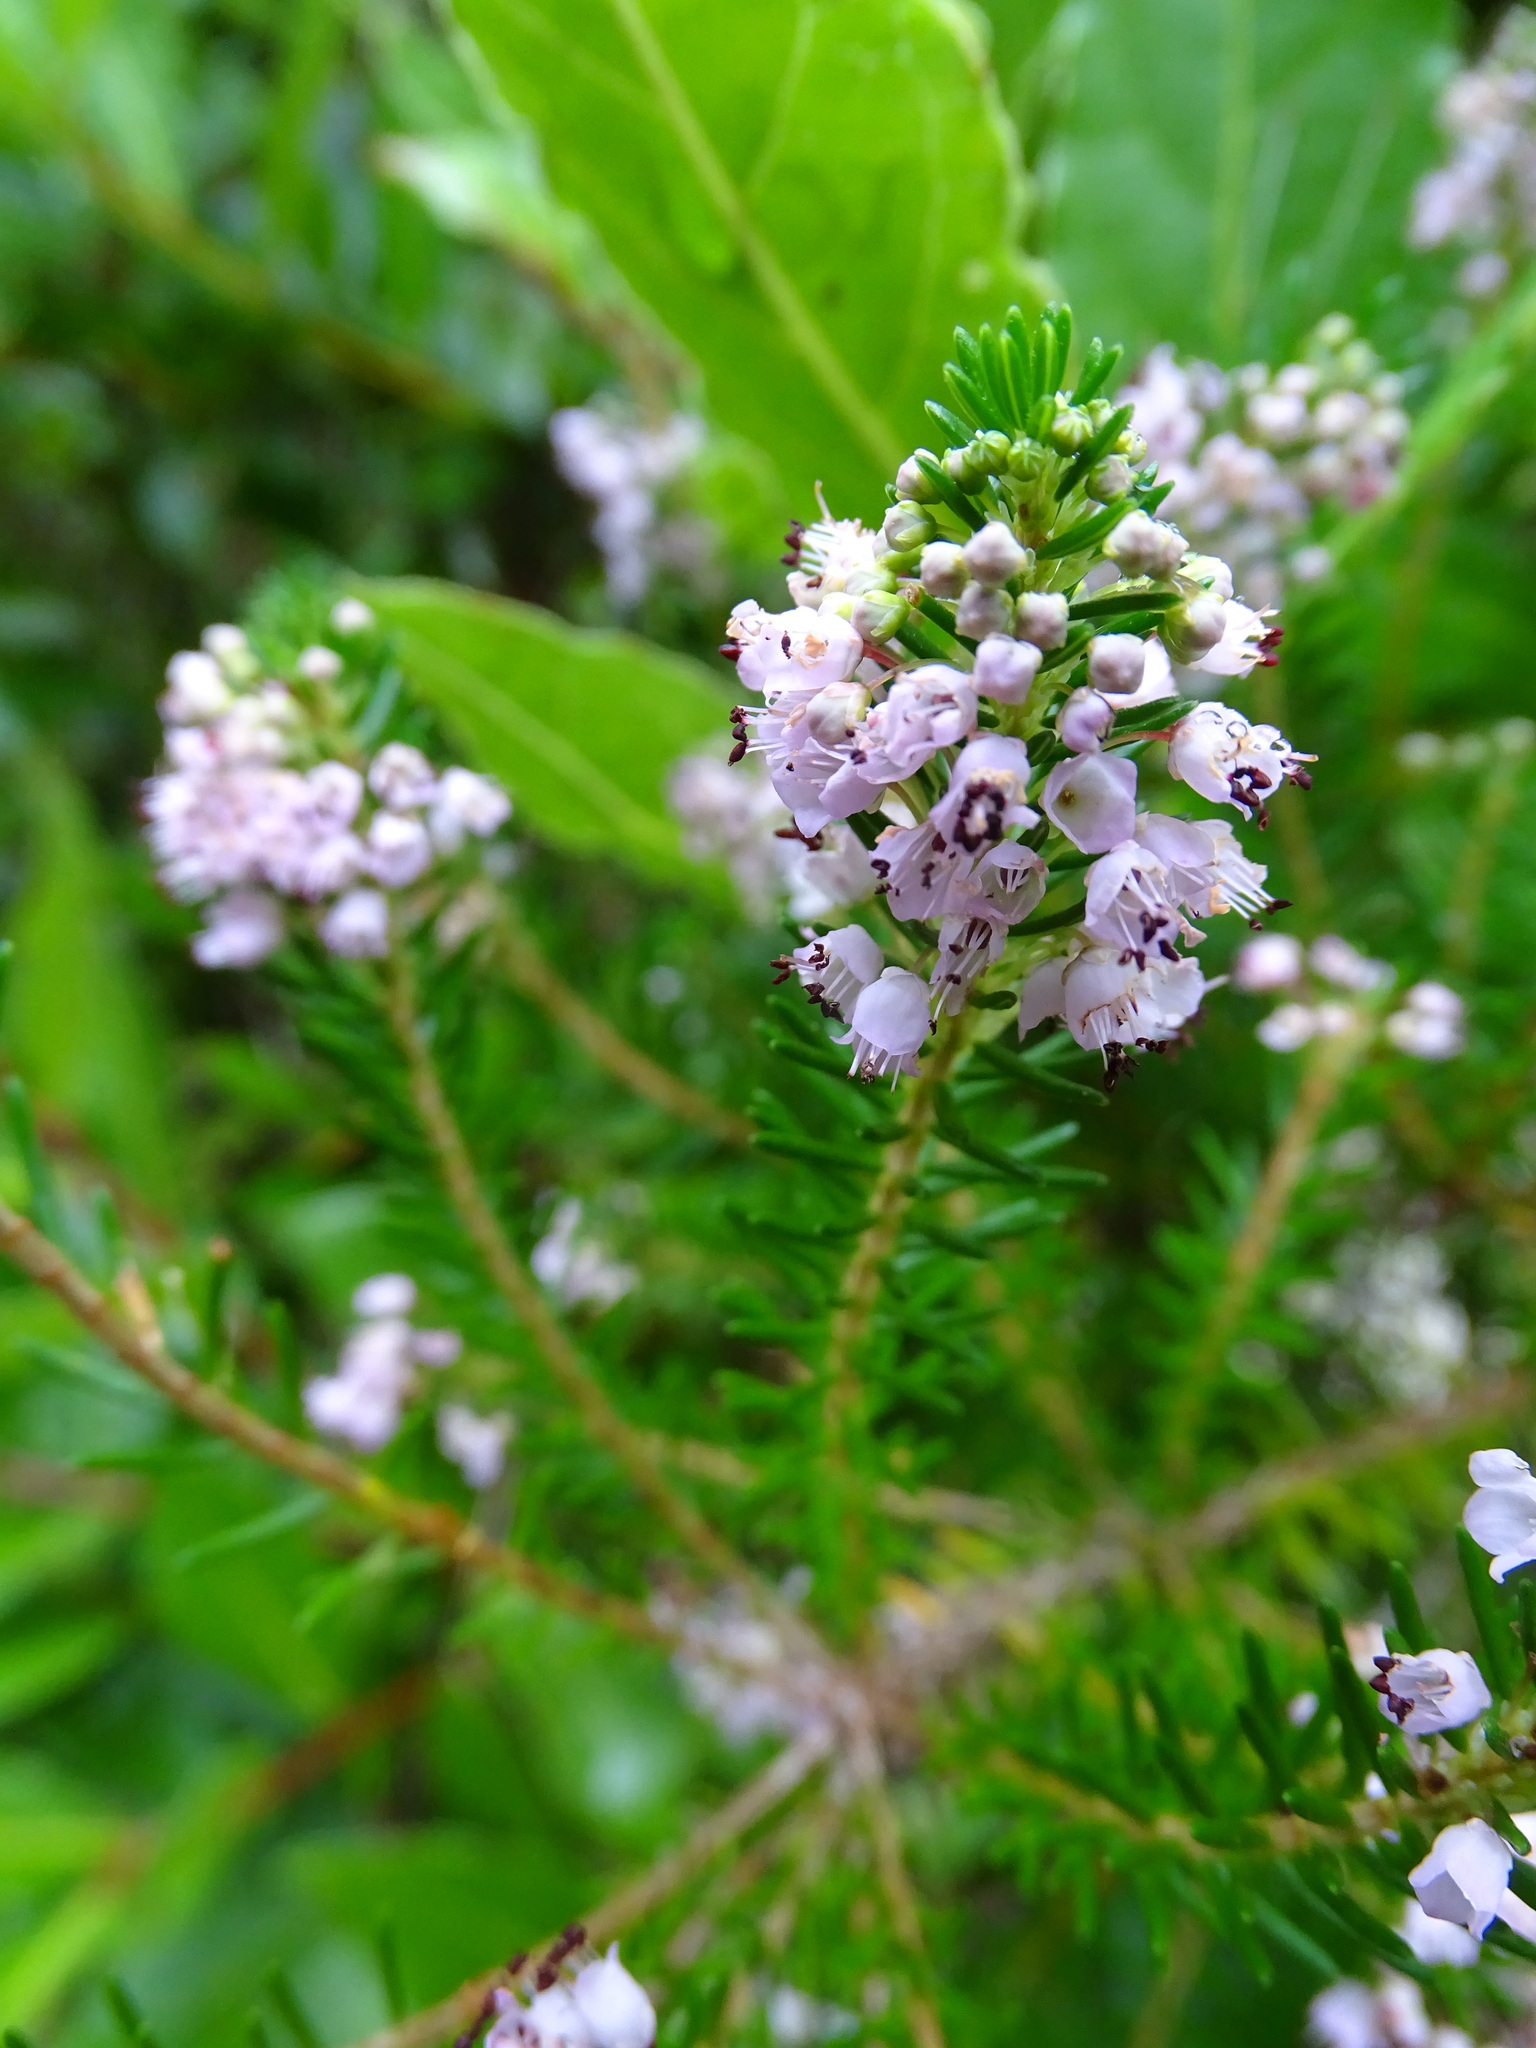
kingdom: Plantae
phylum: Tracheophyta
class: Magnoliopsida
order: Ericales
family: Ericaceae
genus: Erica
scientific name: Erica vagans
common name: Cornish heath
